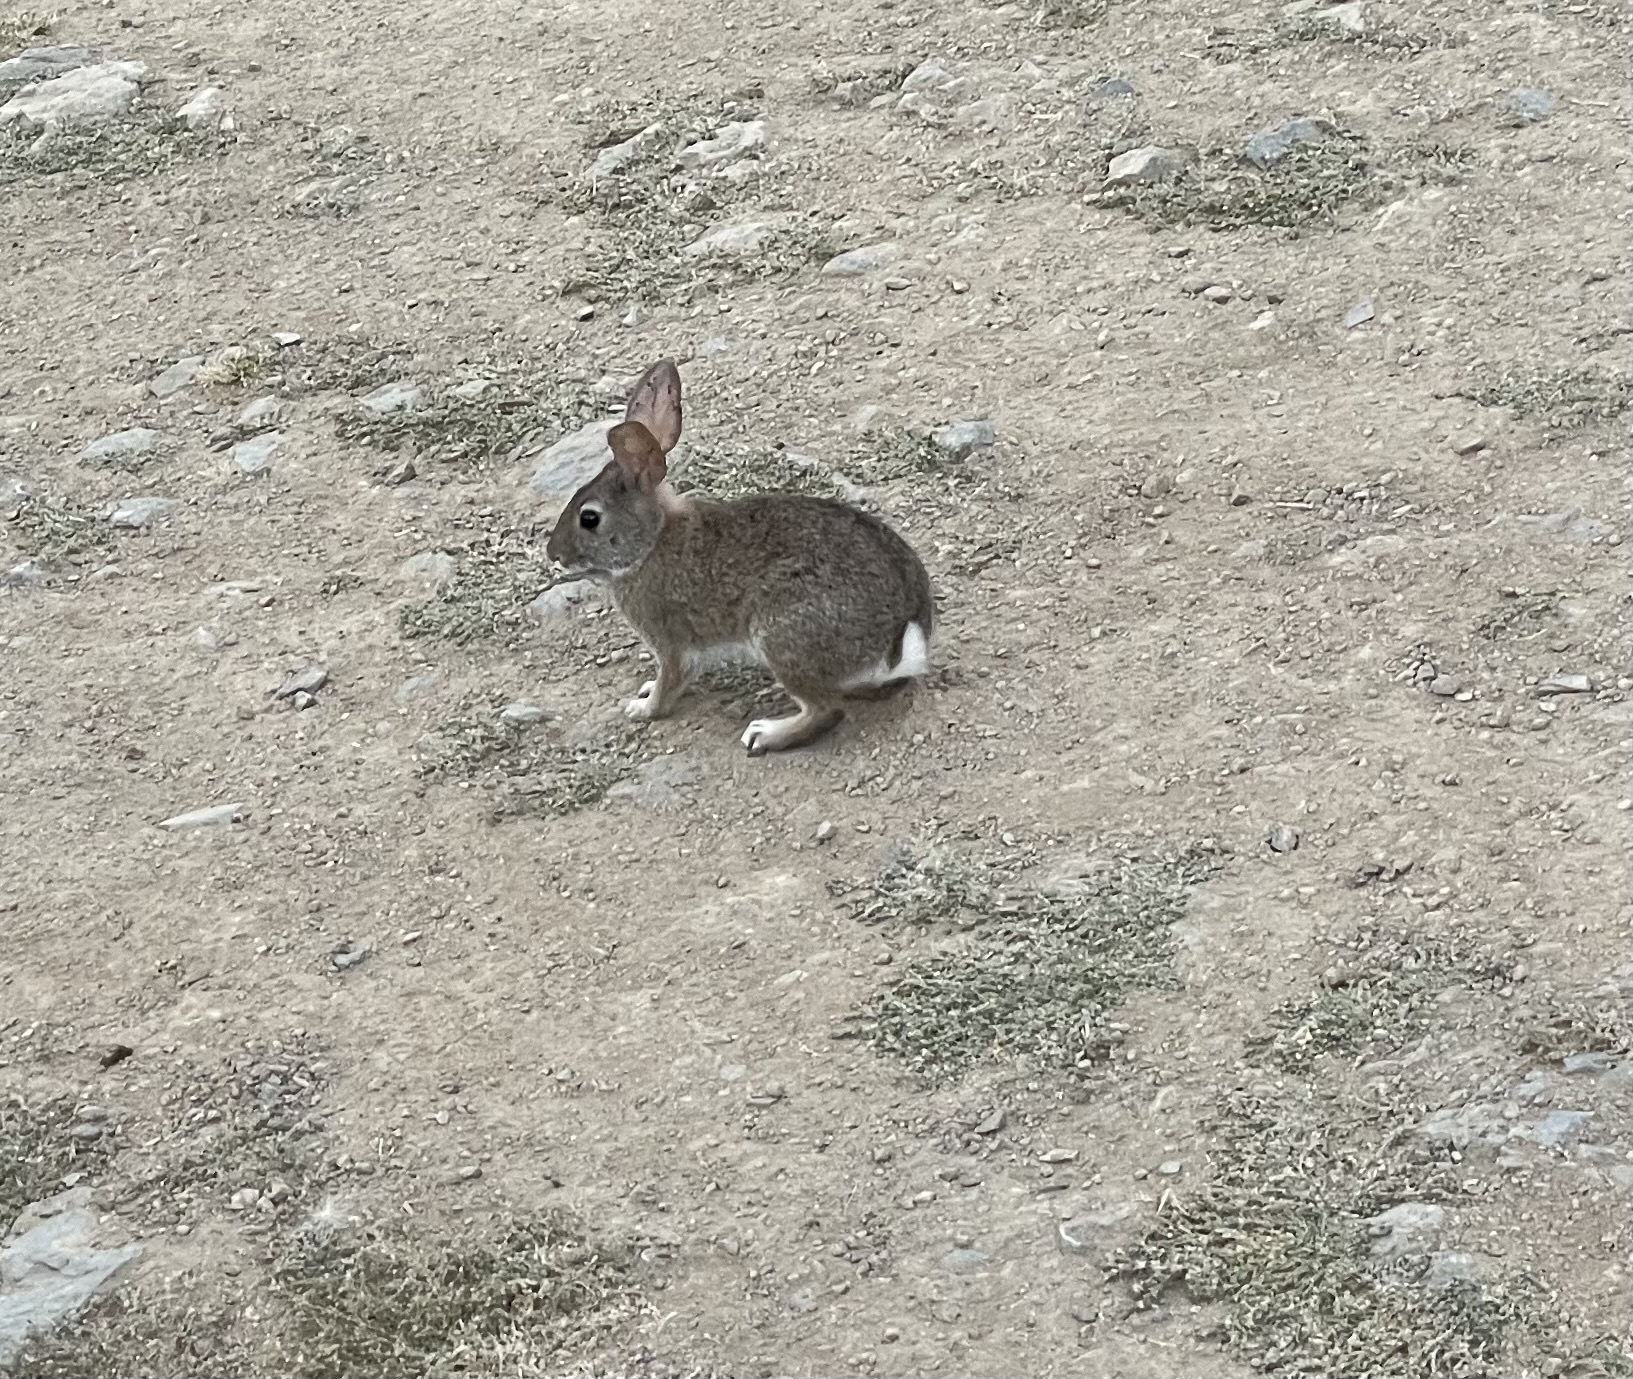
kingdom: Animalia
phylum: Chordata
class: Mammalia
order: Lagomorpha
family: Leporidae
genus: Sylvilagus
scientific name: Sylvilagus bachmani
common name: Brush rabbit
